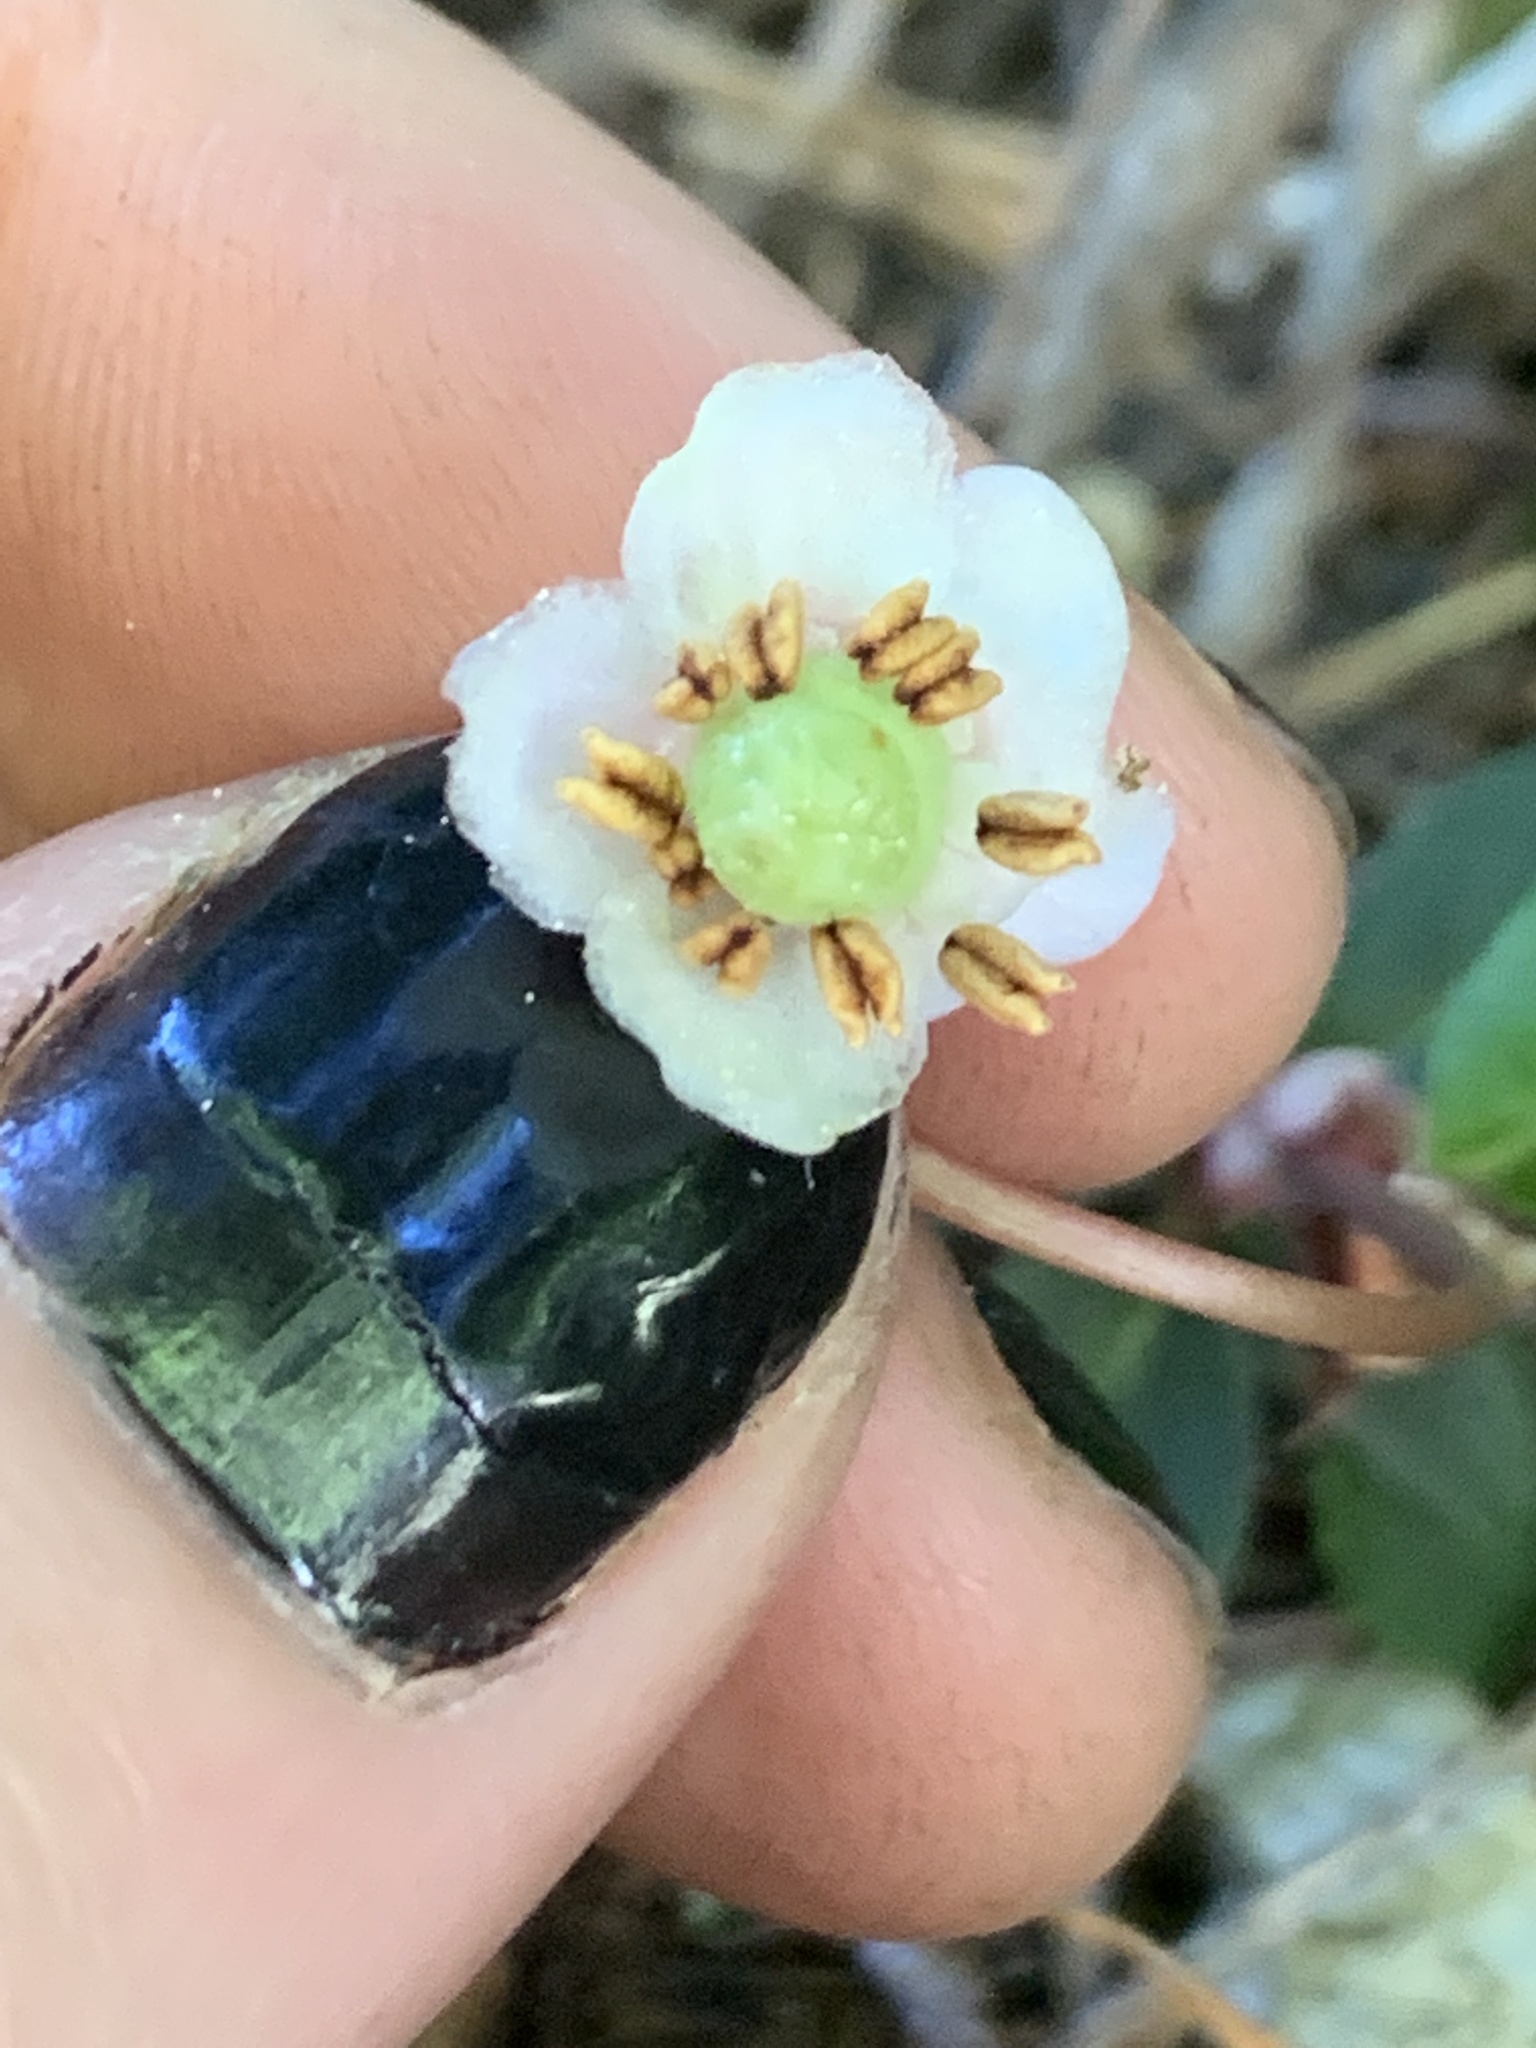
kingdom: Plantae
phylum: Tracheophyta
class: Magnoliopsida
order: Ericales
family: Ericaceae
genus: Chimaphila
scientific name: Chimaphila menziesii
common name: Menzies' pipsissewa
